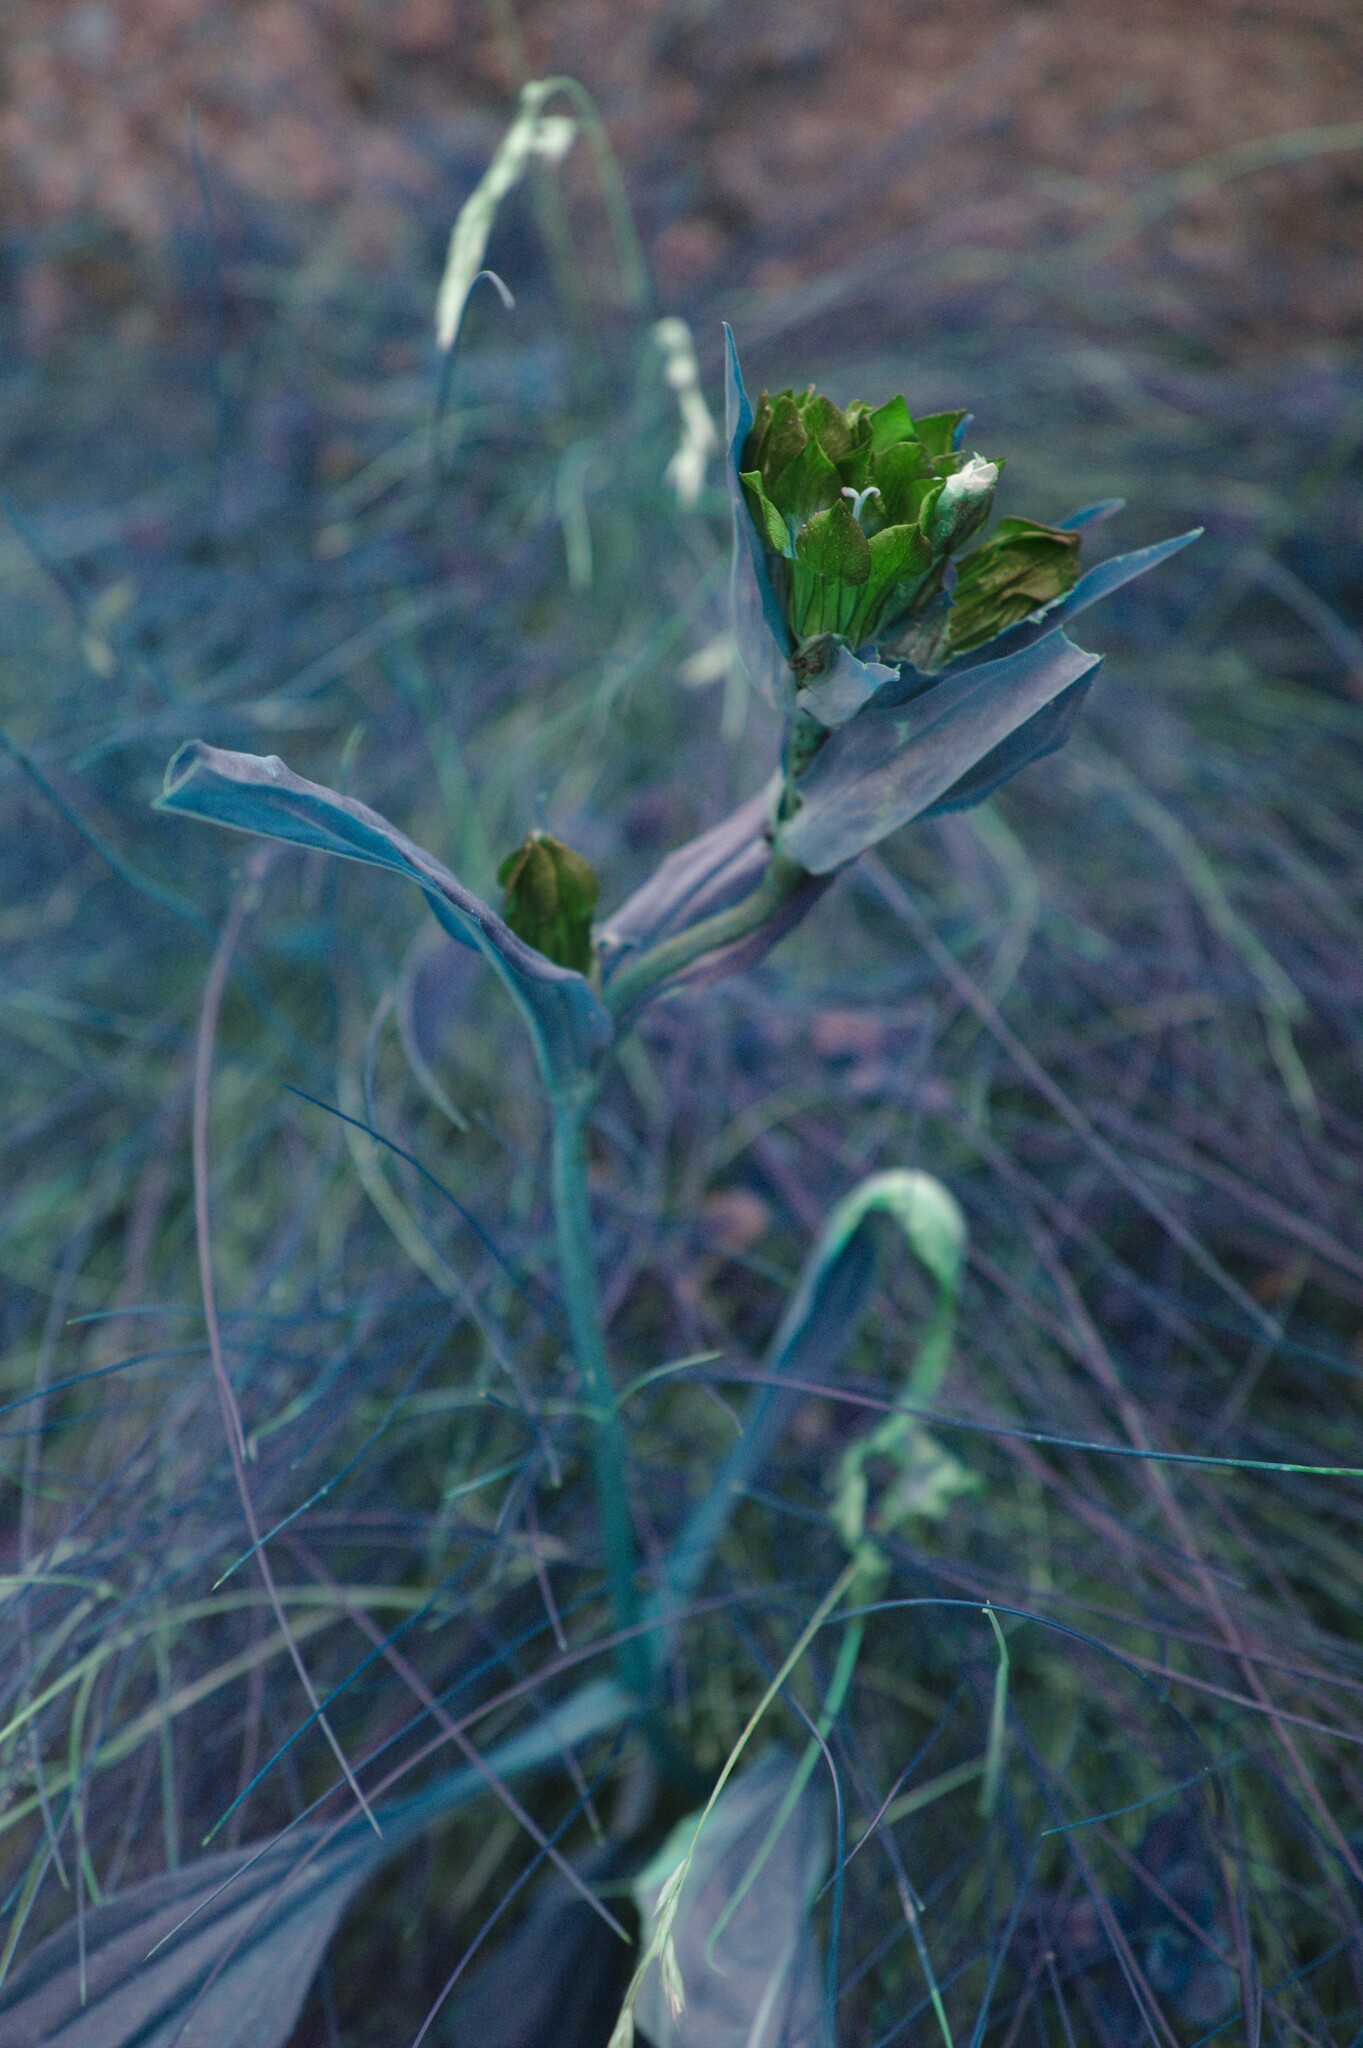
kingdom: Plantae
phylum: Tracheophyta
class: Magnoliopsida
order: Gentianales
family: Gentianaceae
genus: Gentiana
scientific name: Gentiana purpurea
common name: Purple gentian
